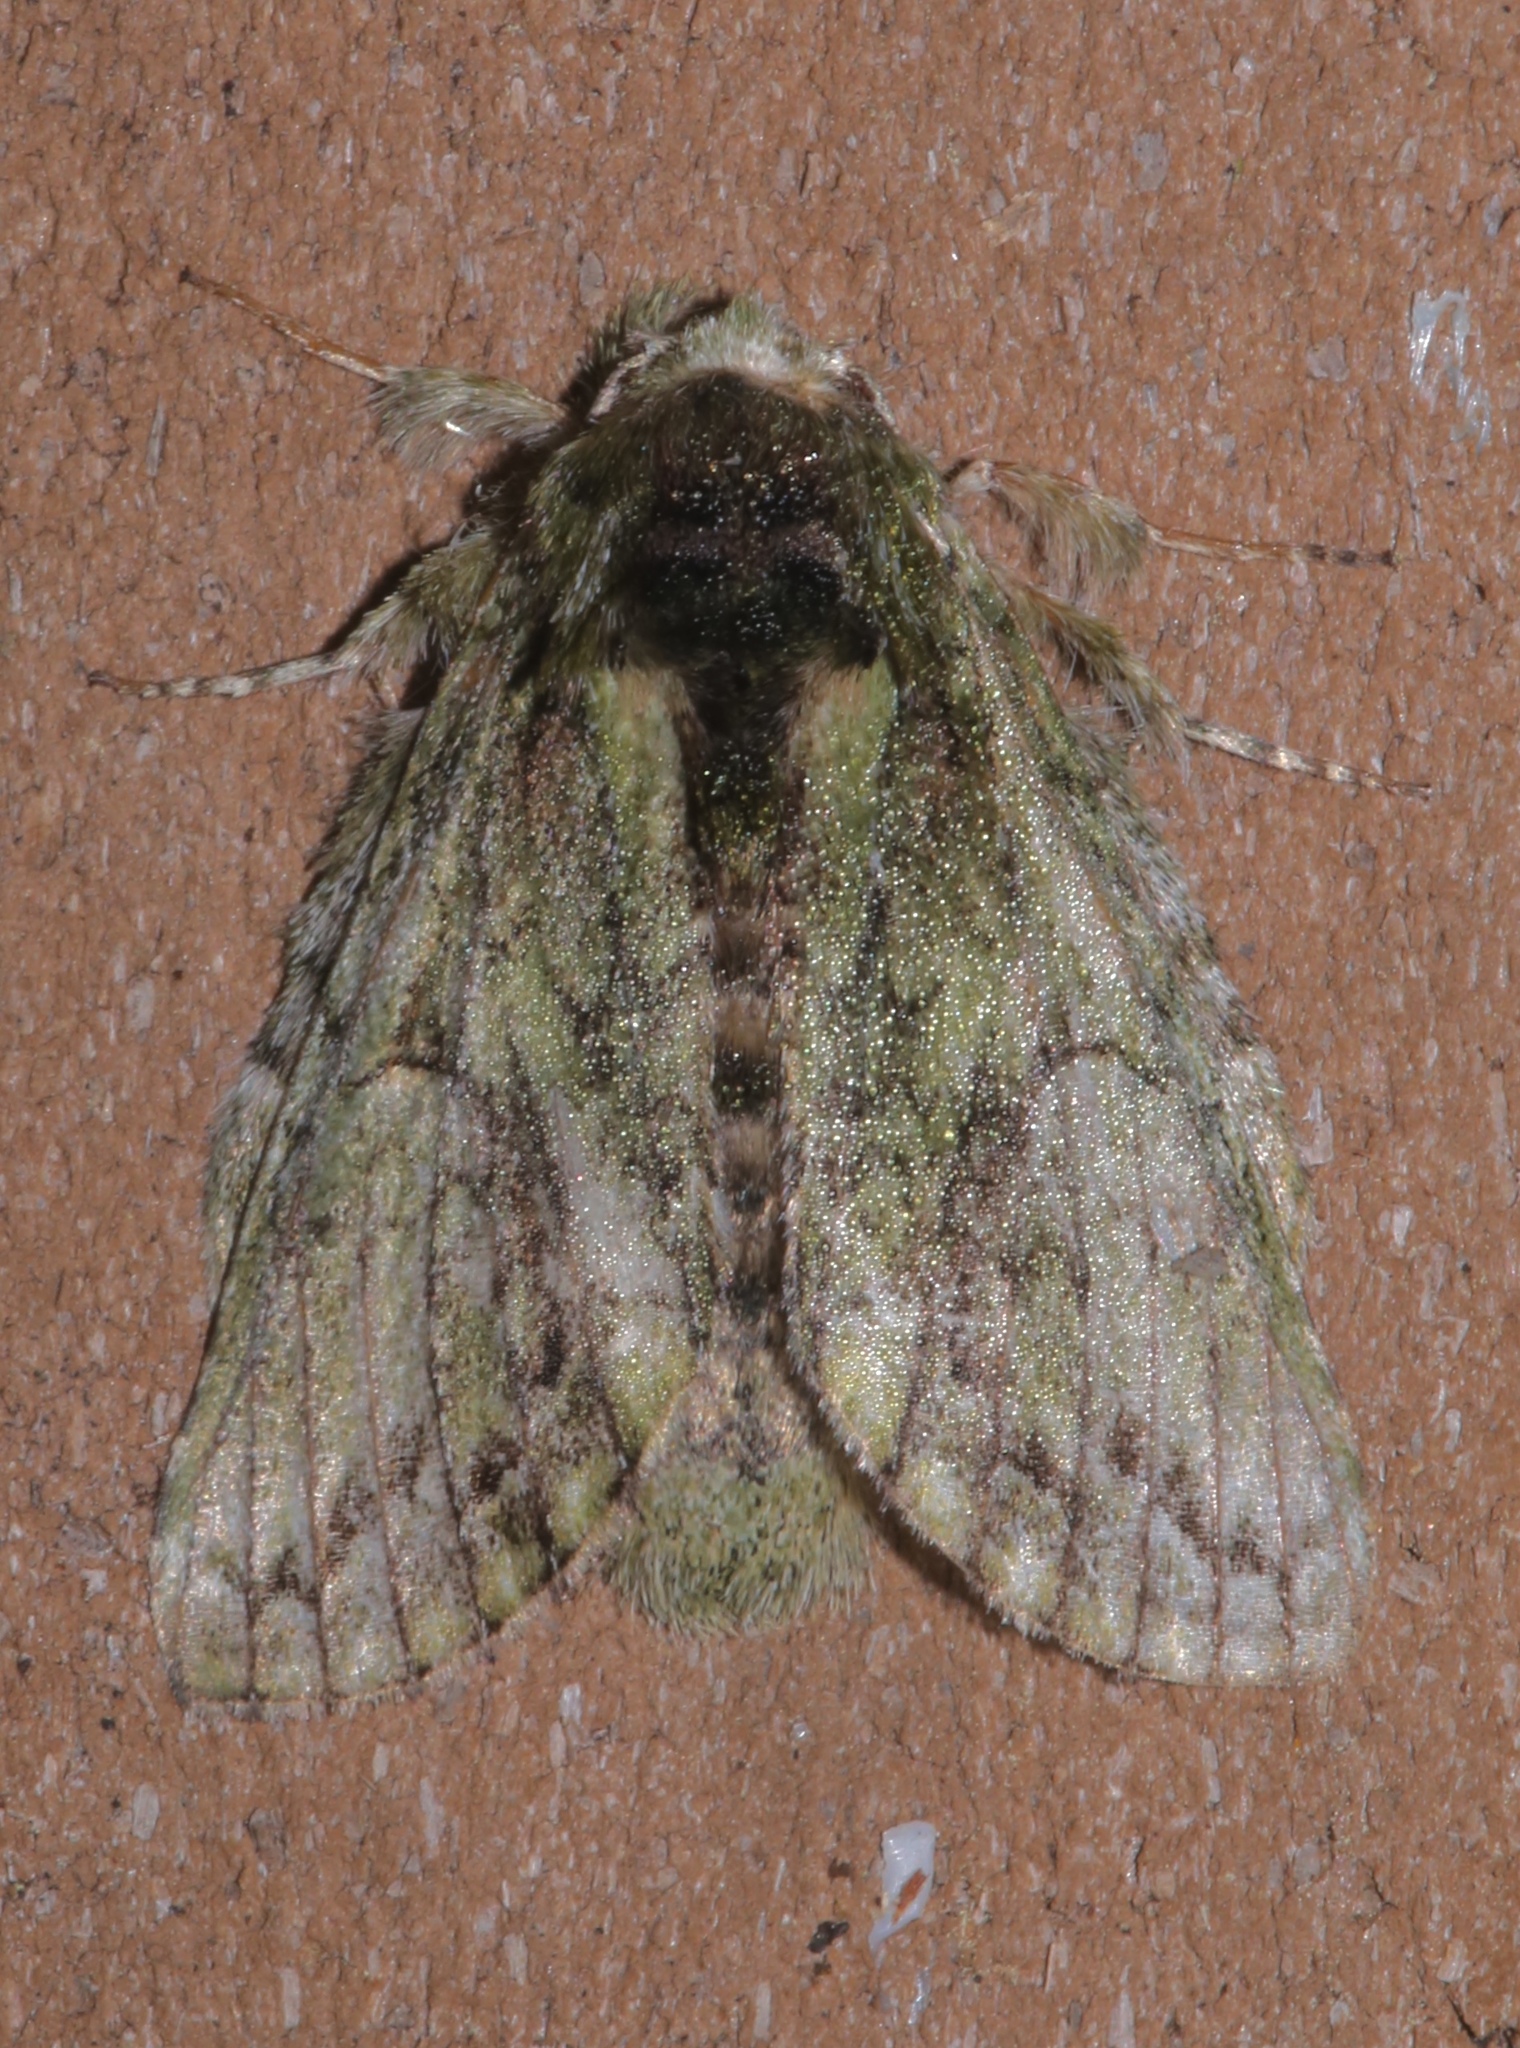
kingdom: Animalia
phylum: Arthropoda
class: Insecta
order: Lepidoptera
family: Notodontidae
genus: Heterocampa
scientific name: Heterocampa umbrata
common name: White-blotched heterocampa
